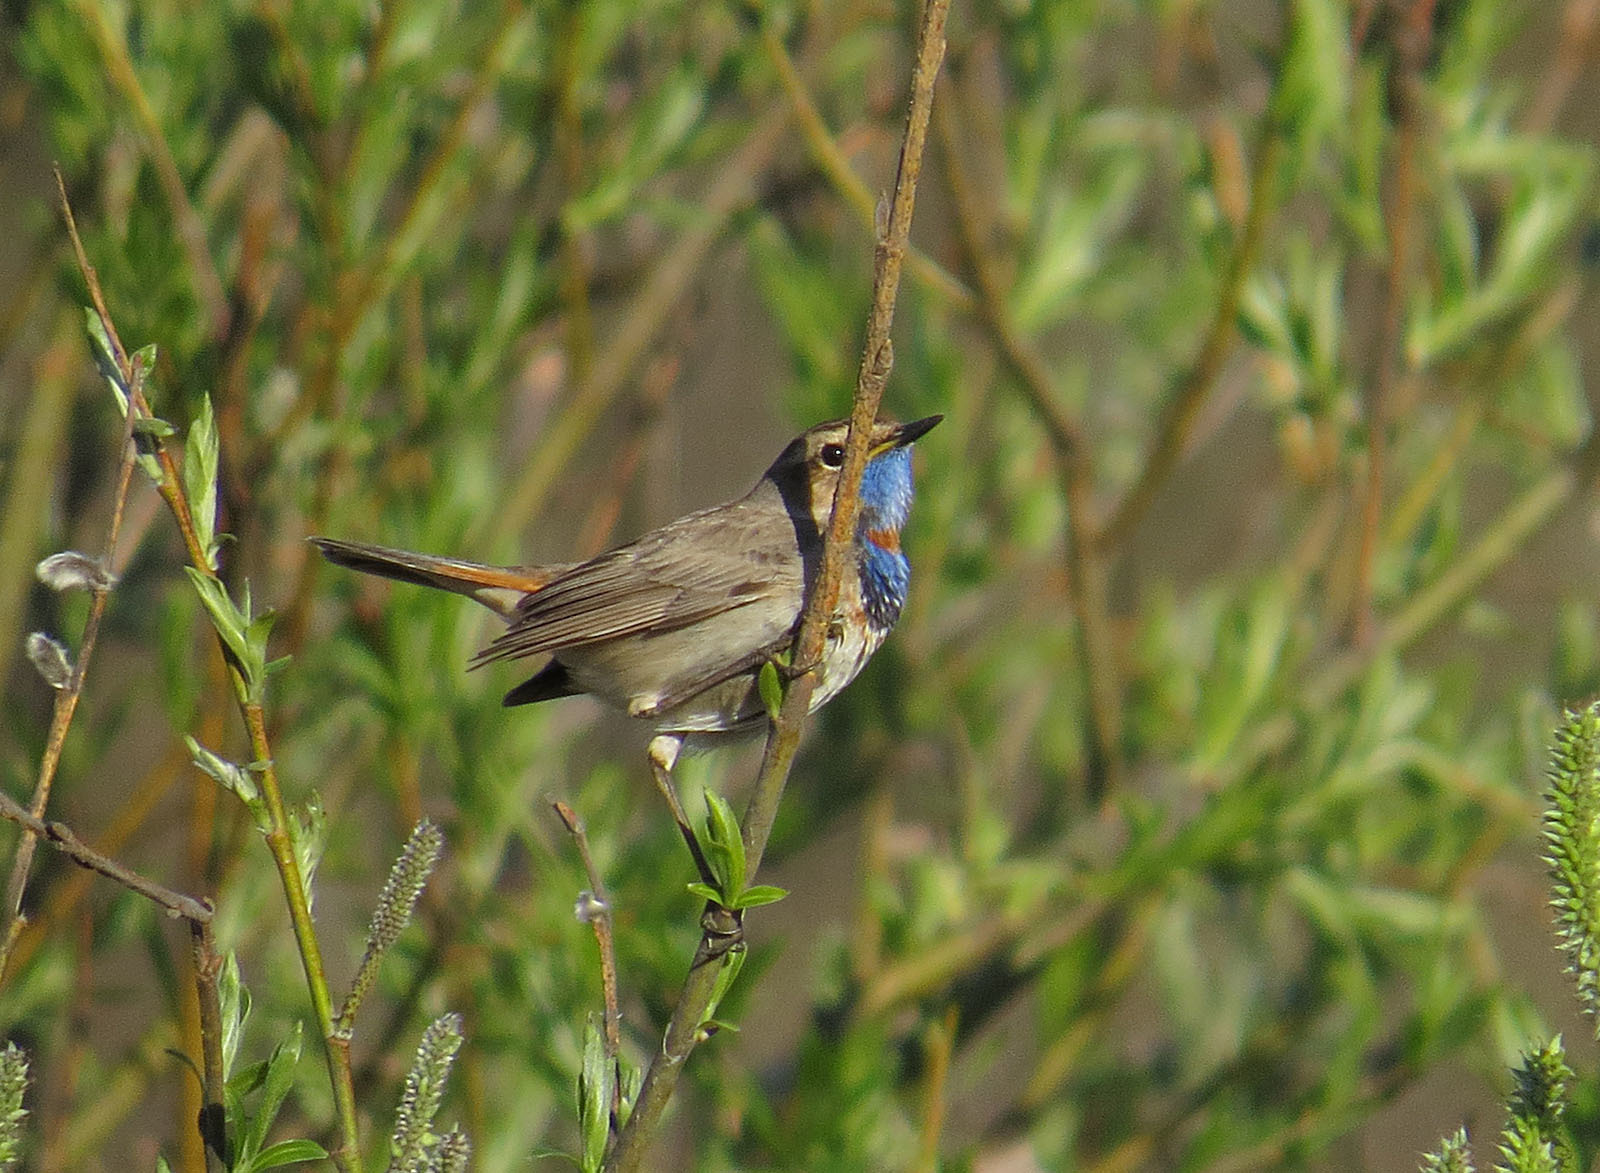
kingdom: Animalia
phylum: Chordata
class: Aves
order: Passeriformes
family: Muscicapidae
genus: Luscinia
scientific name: Luscinia svecica
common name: Bluethroat
